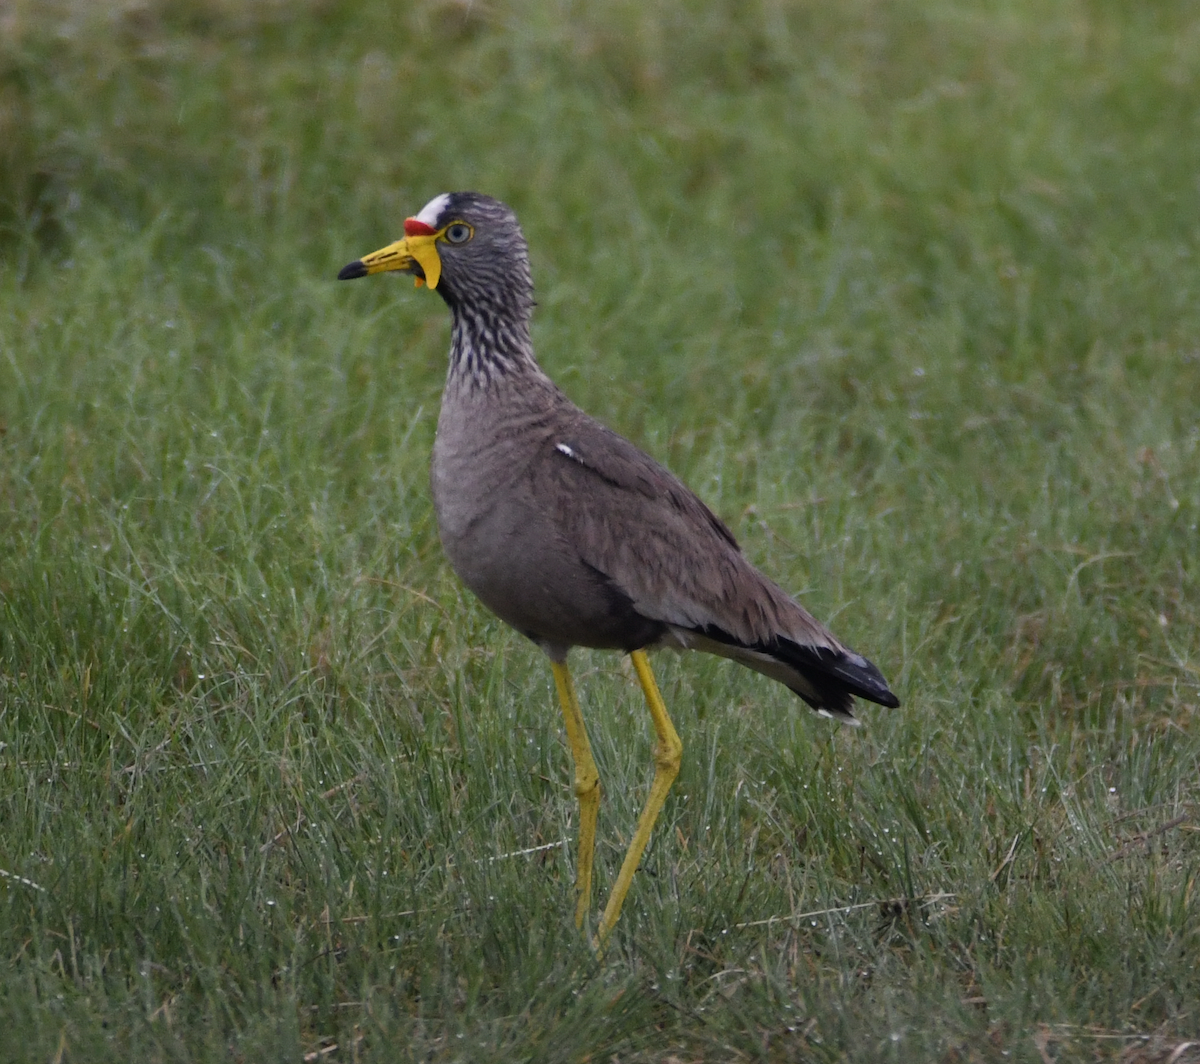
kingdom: Animalia
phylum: Chordata
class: Aves
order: Charadriiformes
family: Charadriidae
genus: Vanellus
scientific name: Vanellus senegallus
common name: African wattled lapwing
